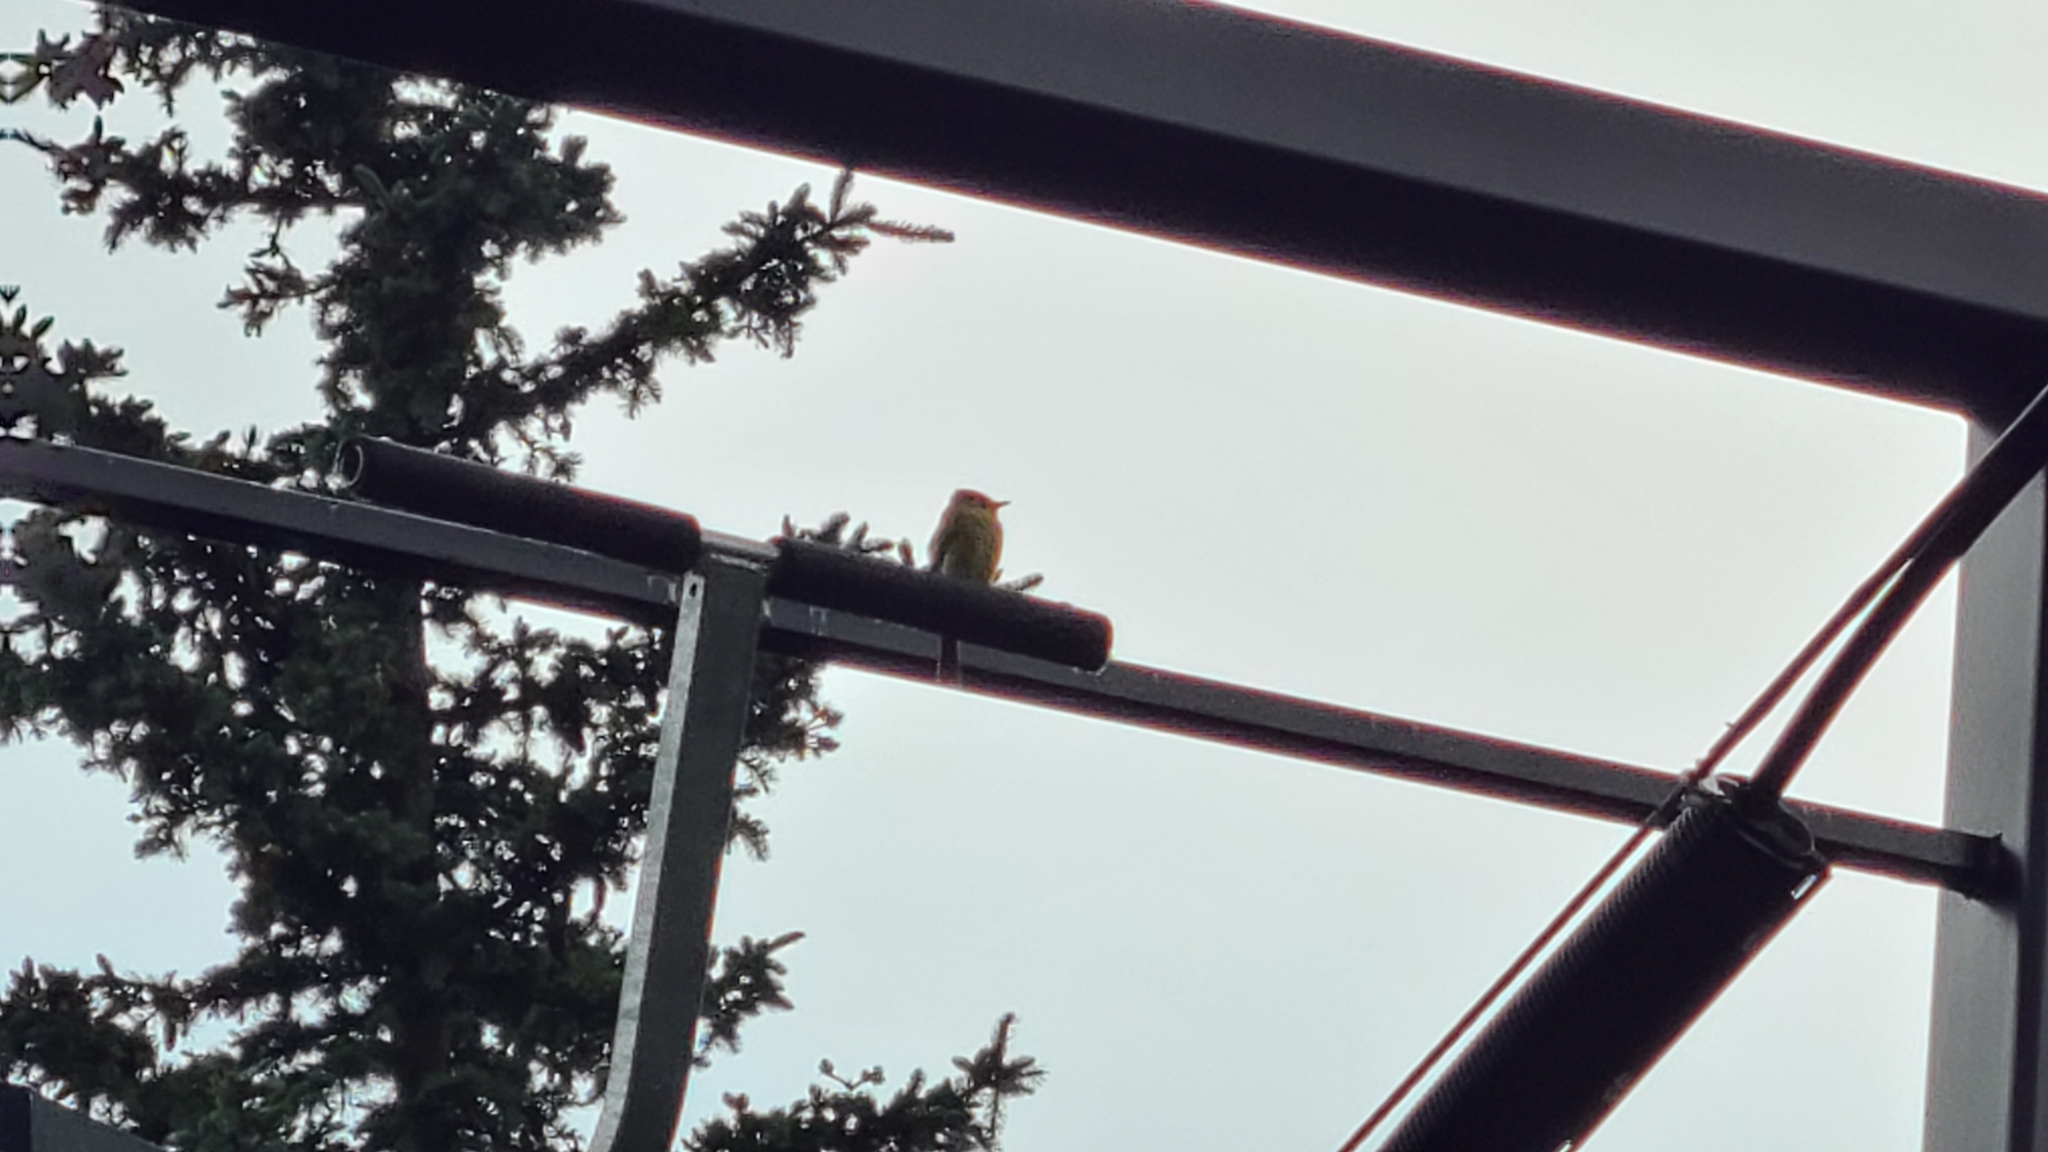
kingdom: Animalia
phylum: Chordata
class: Aves
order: Passeriformes
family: Tyrannidae
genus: Empidonax
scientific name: Empidonax
